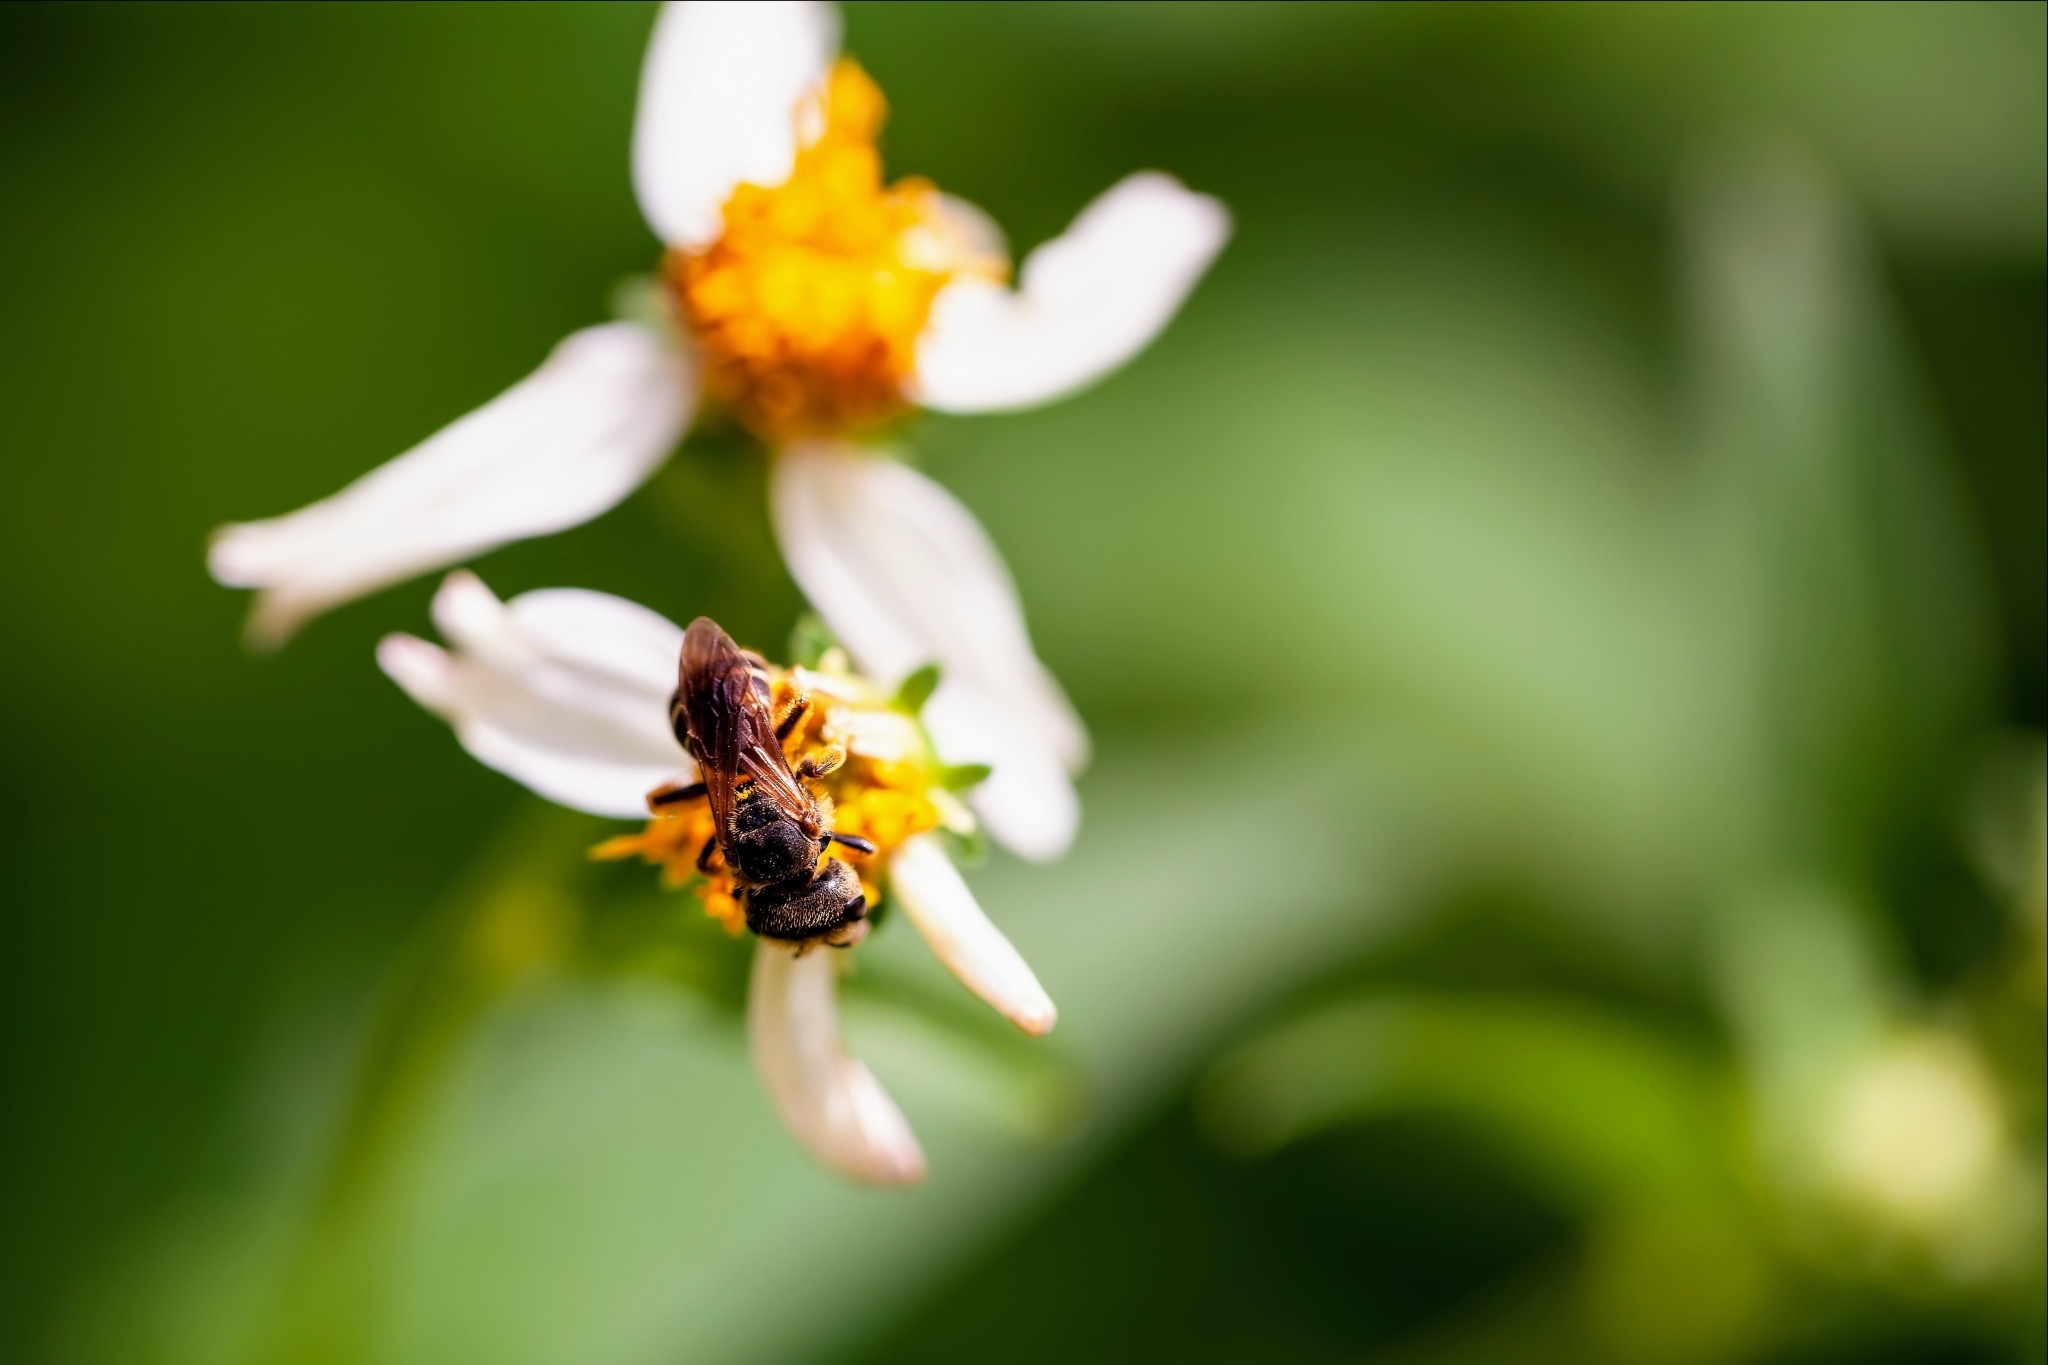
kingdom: Animalia
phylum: Arthropoda
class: Insecta
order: Hymenoptera
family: Halictidae
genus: Halictus
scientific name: Halictus poeyi
